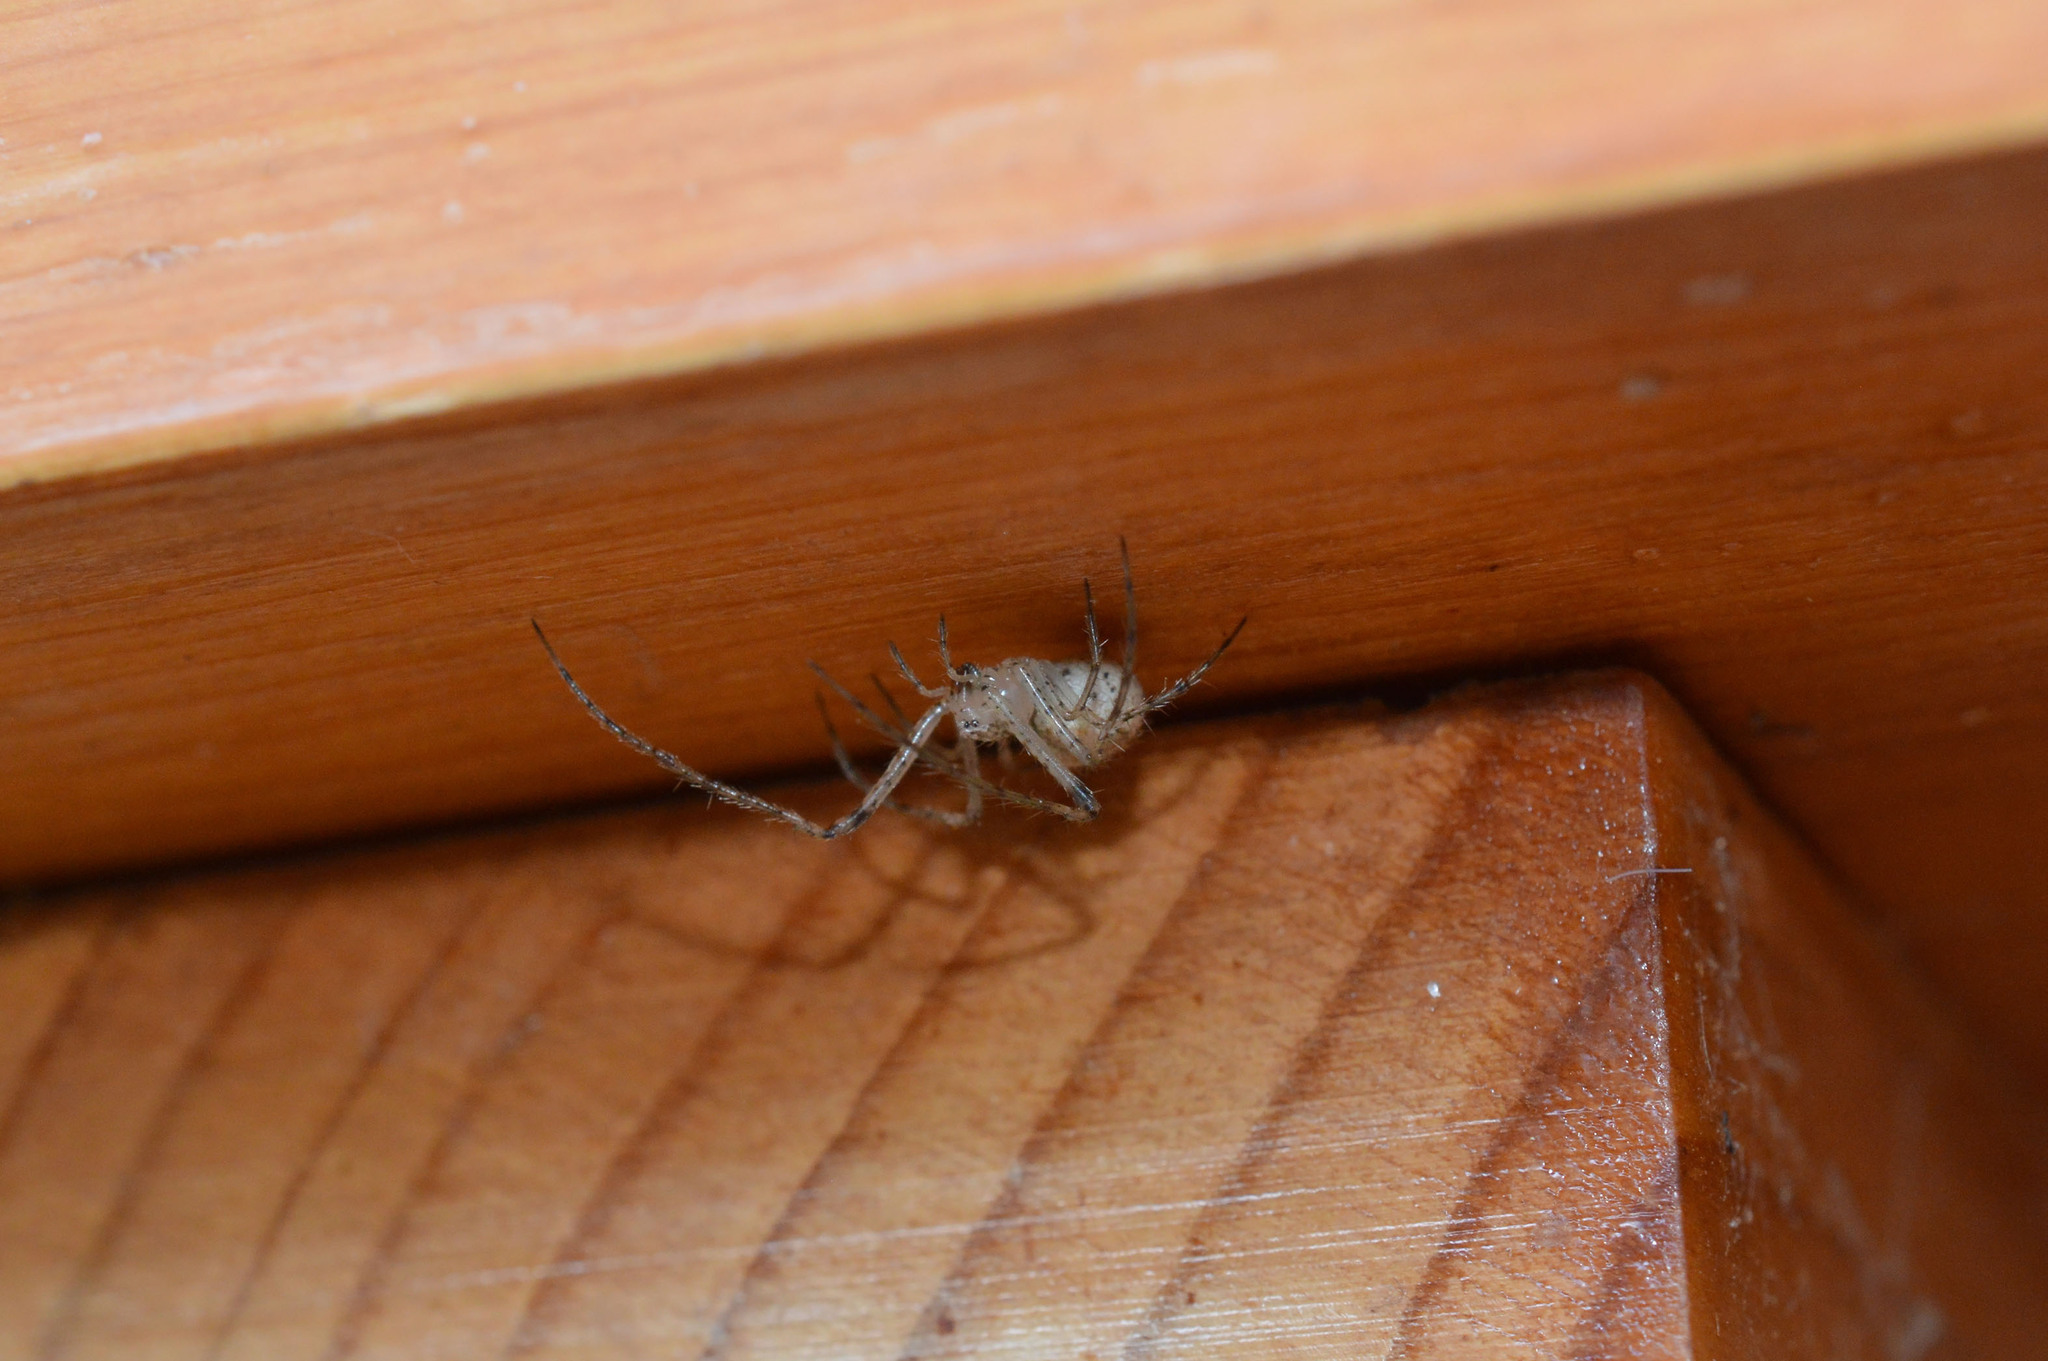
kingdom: Animalia
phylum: Arthropoda
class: Arachnida
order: Araneae
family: Mimetidae
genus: Mimetus
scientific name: Mimetus laevigatus
